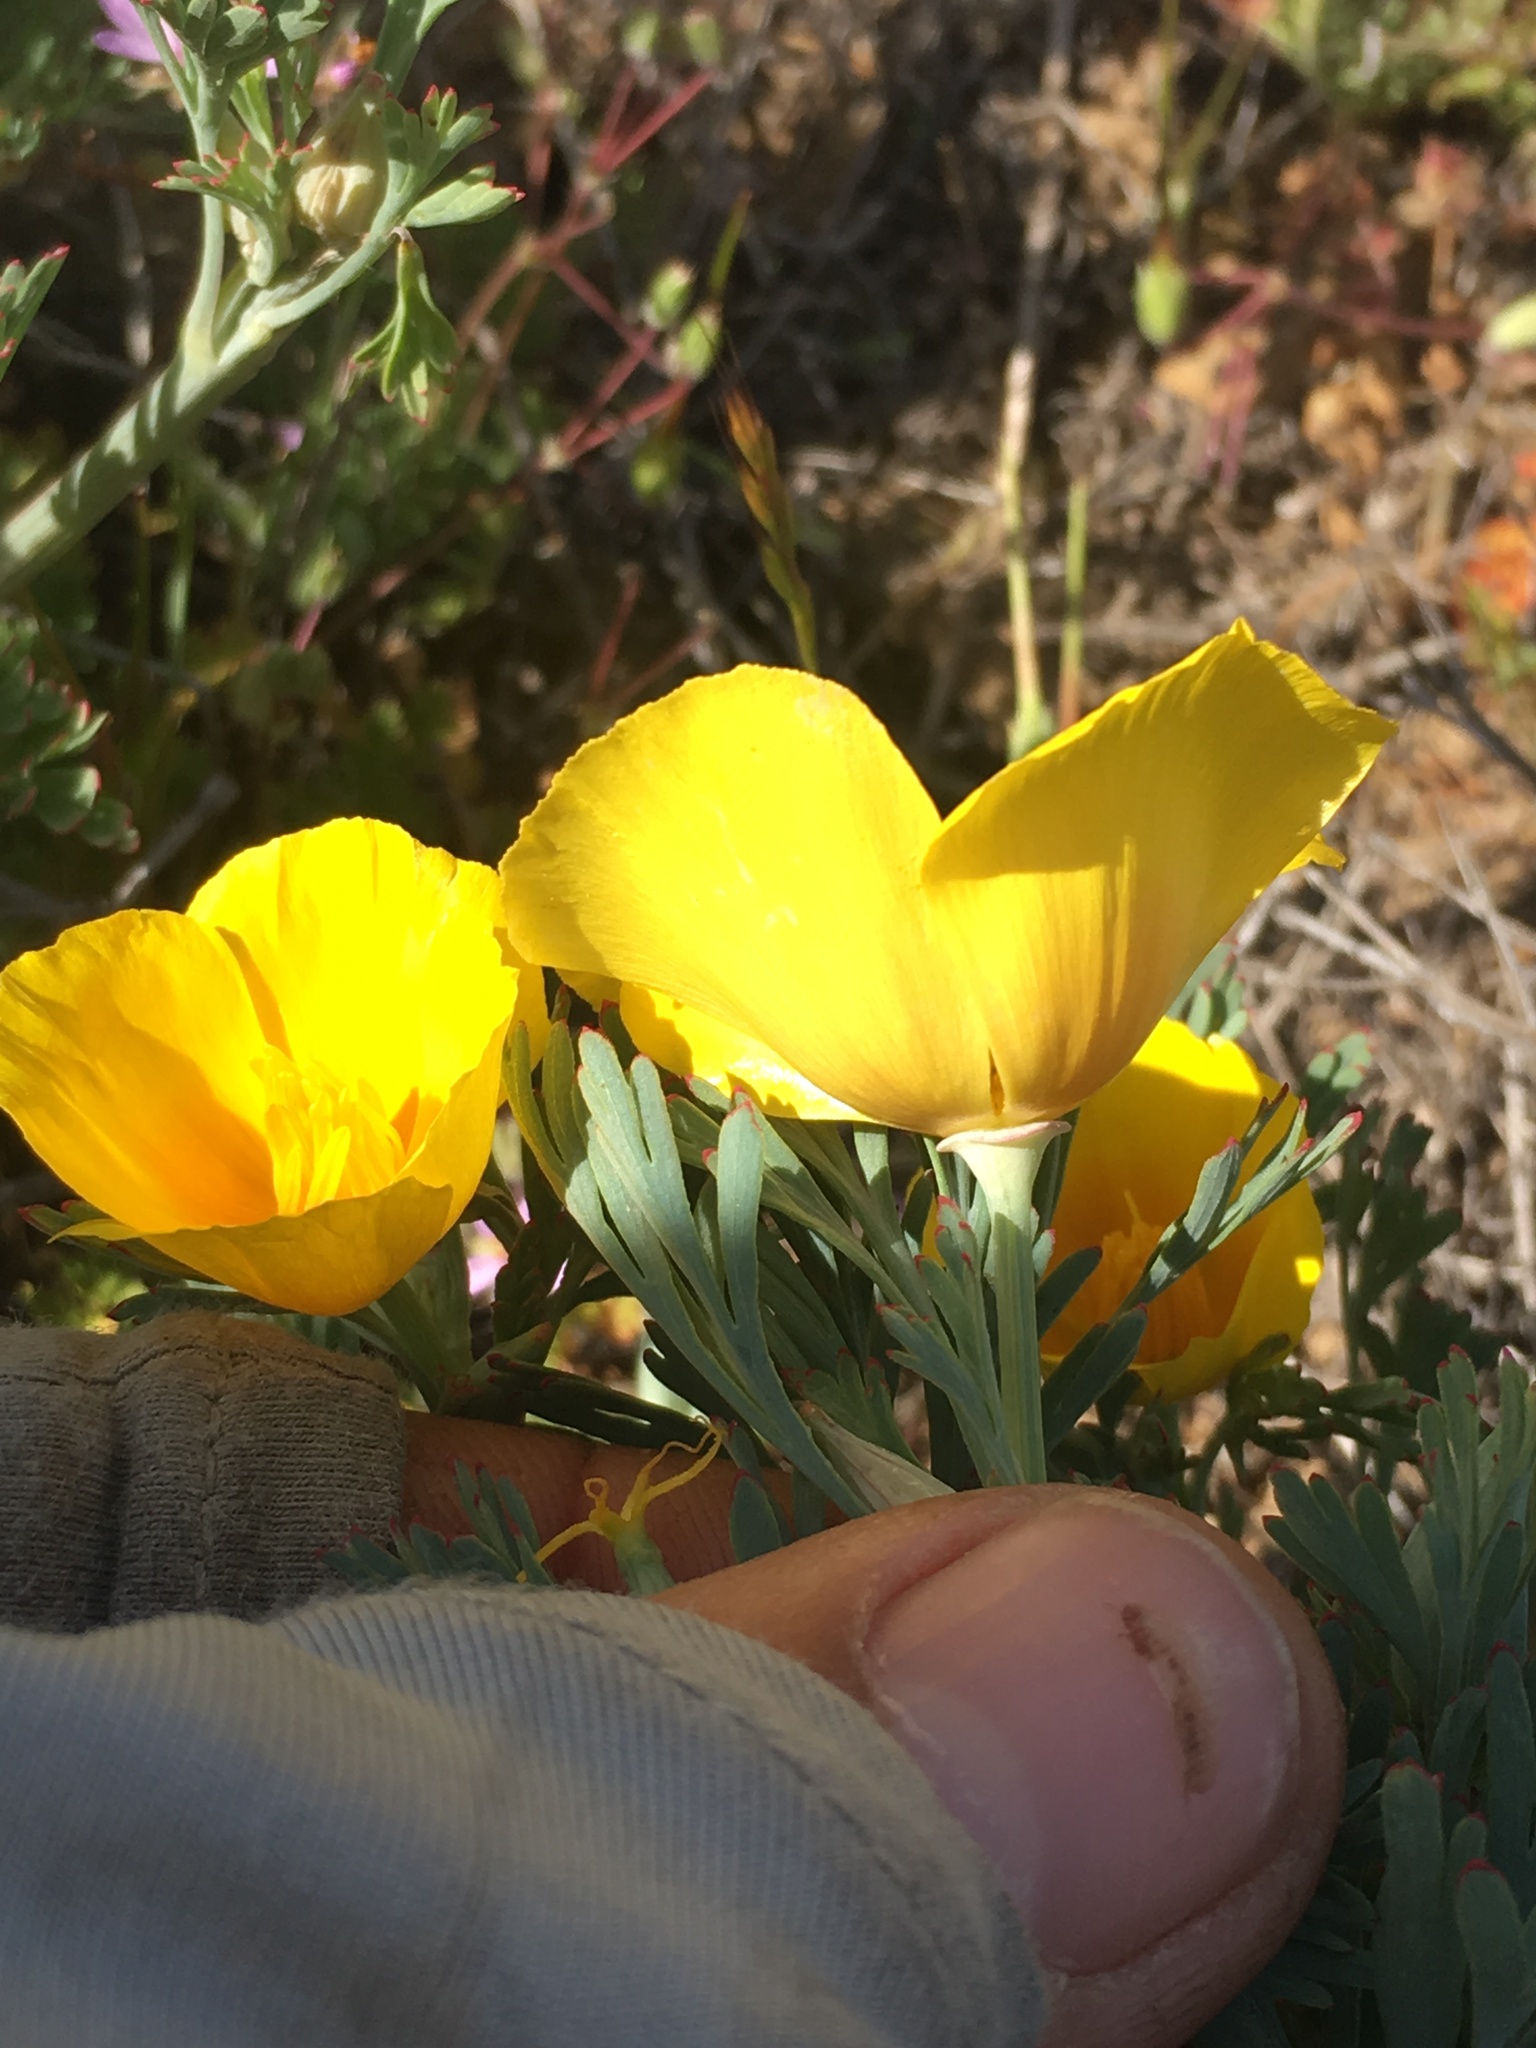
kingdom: Plantae
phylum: Tracheophyta
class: Magnoliopsida
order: Ranunculales
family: Papaveraceae
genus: Eschscholzia
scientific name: Eschscholzia californica
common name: California poppy
